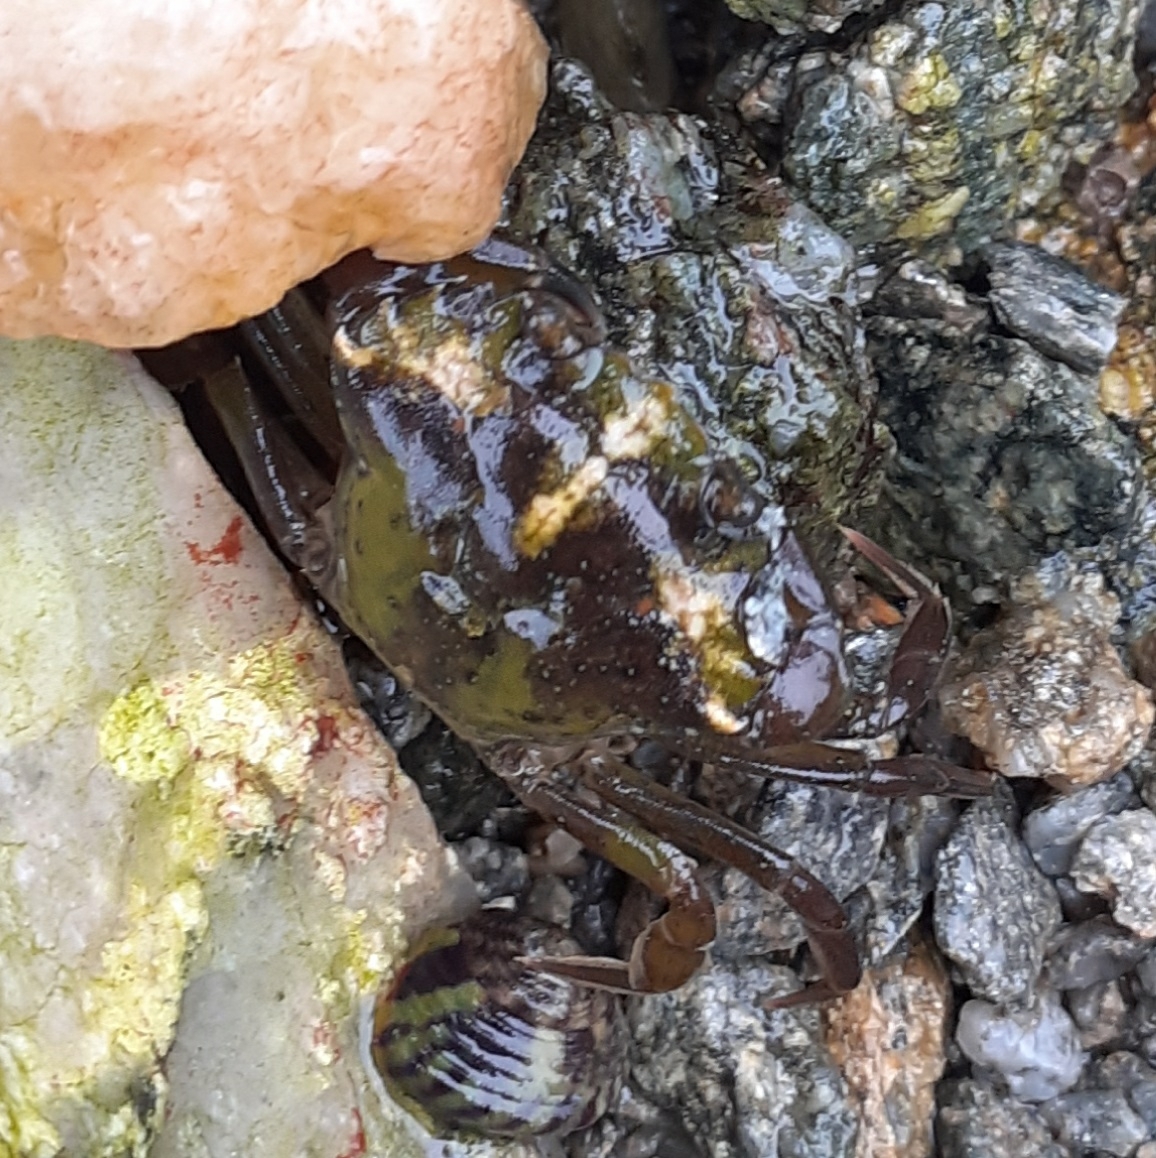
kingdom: Animalia
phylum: Arthropoda
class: Malacostraca
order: Decapoda
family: Carcinidae
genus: Carcinus
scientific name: Carcinus maenas
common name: European green crab
